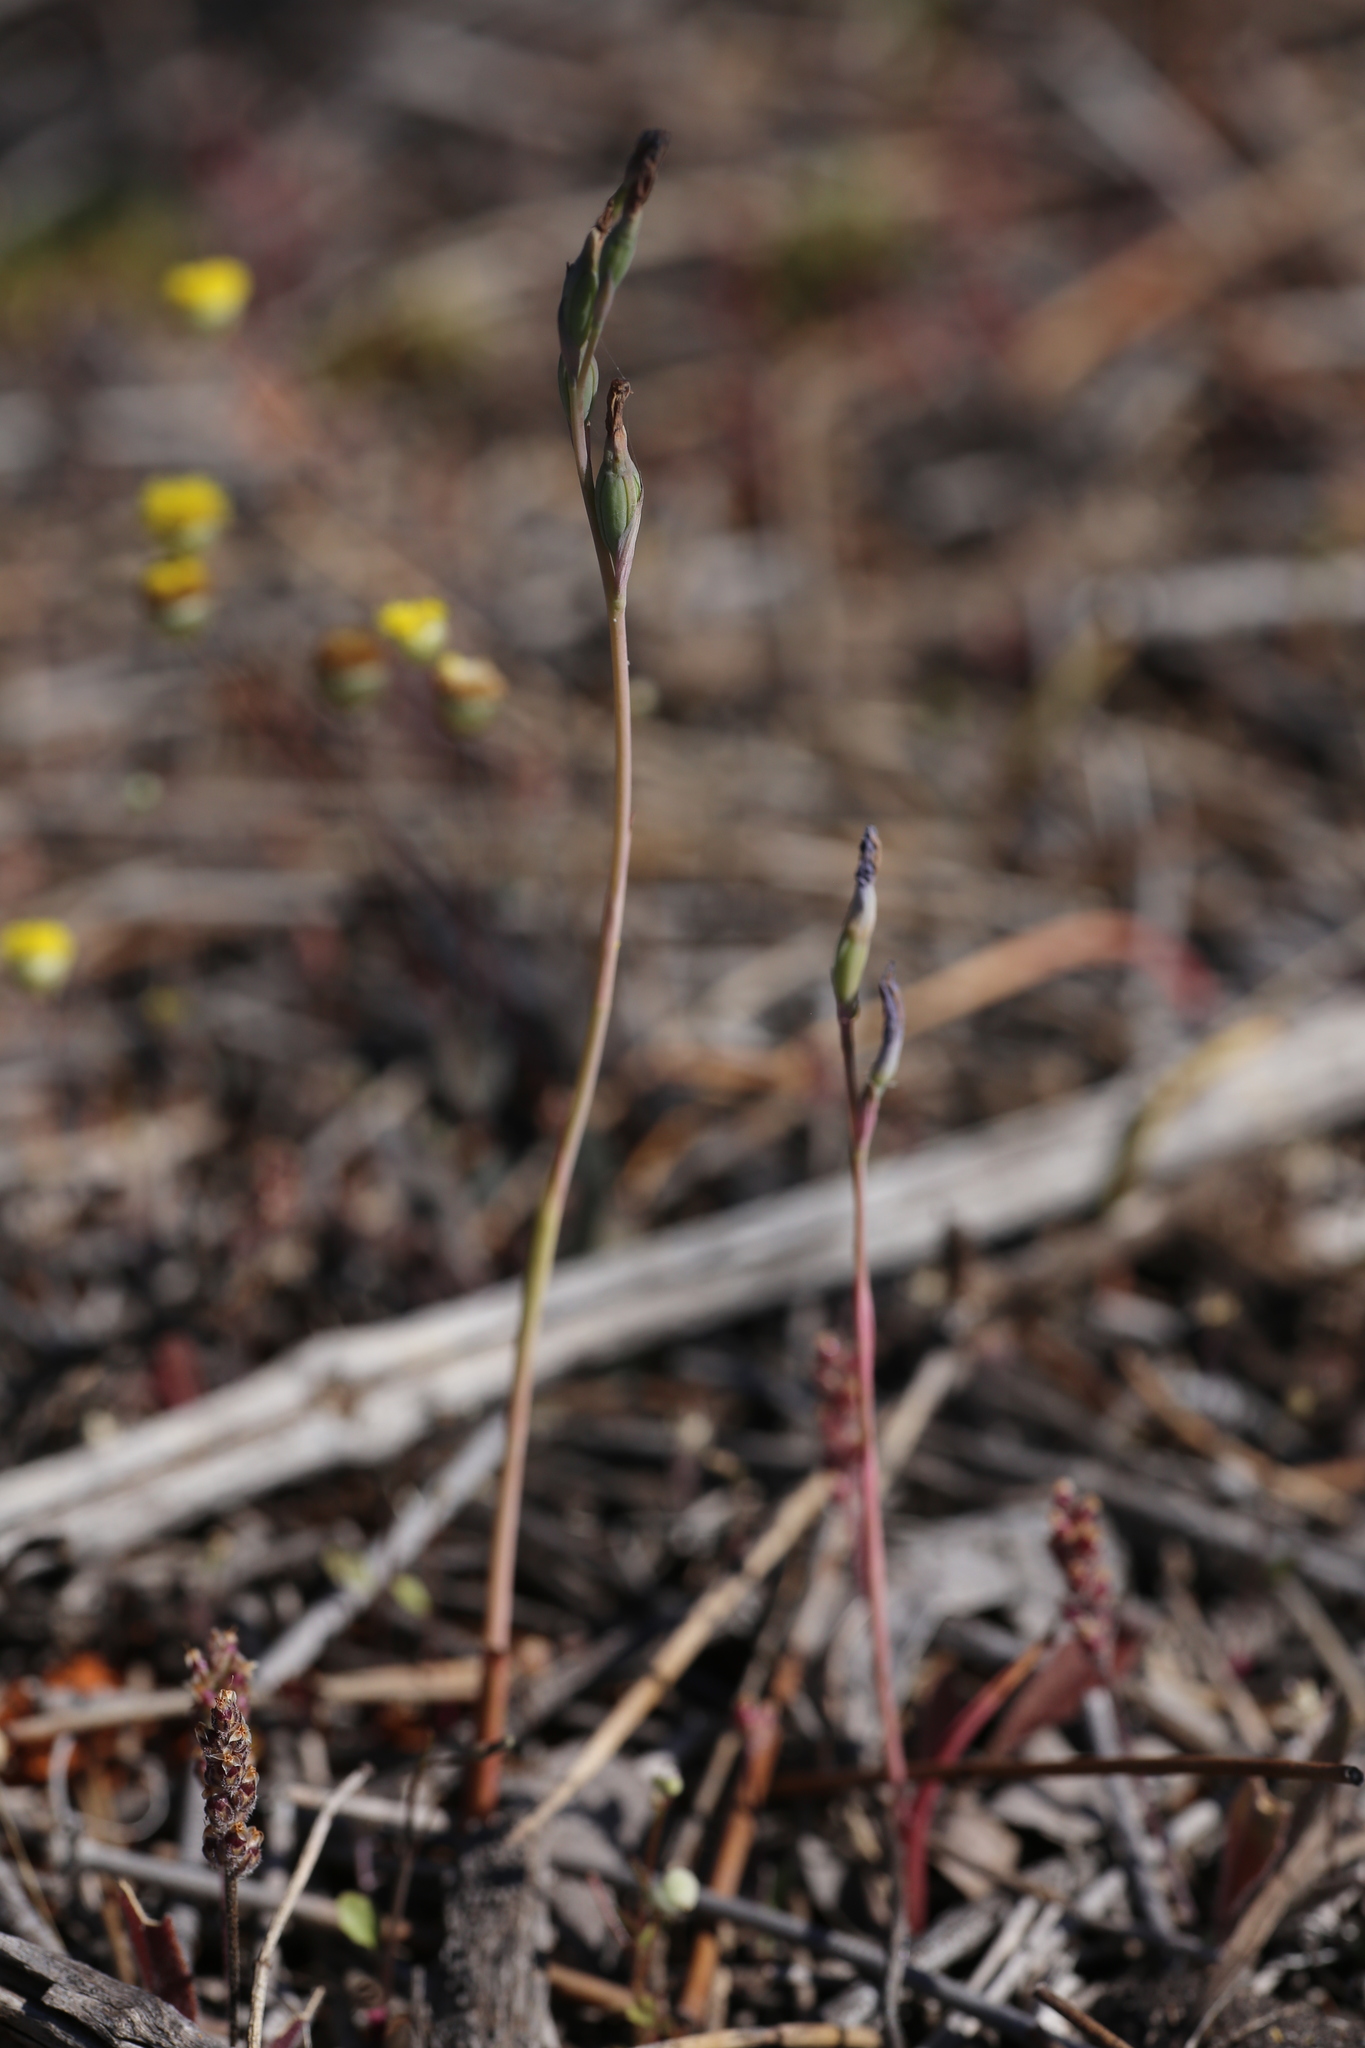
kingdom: Plantae
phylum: Tracheophyta
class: Liliopsida
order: Asparagales
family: Orchidaceae
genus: Thelymitra
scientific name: Thelymitra petrophila
